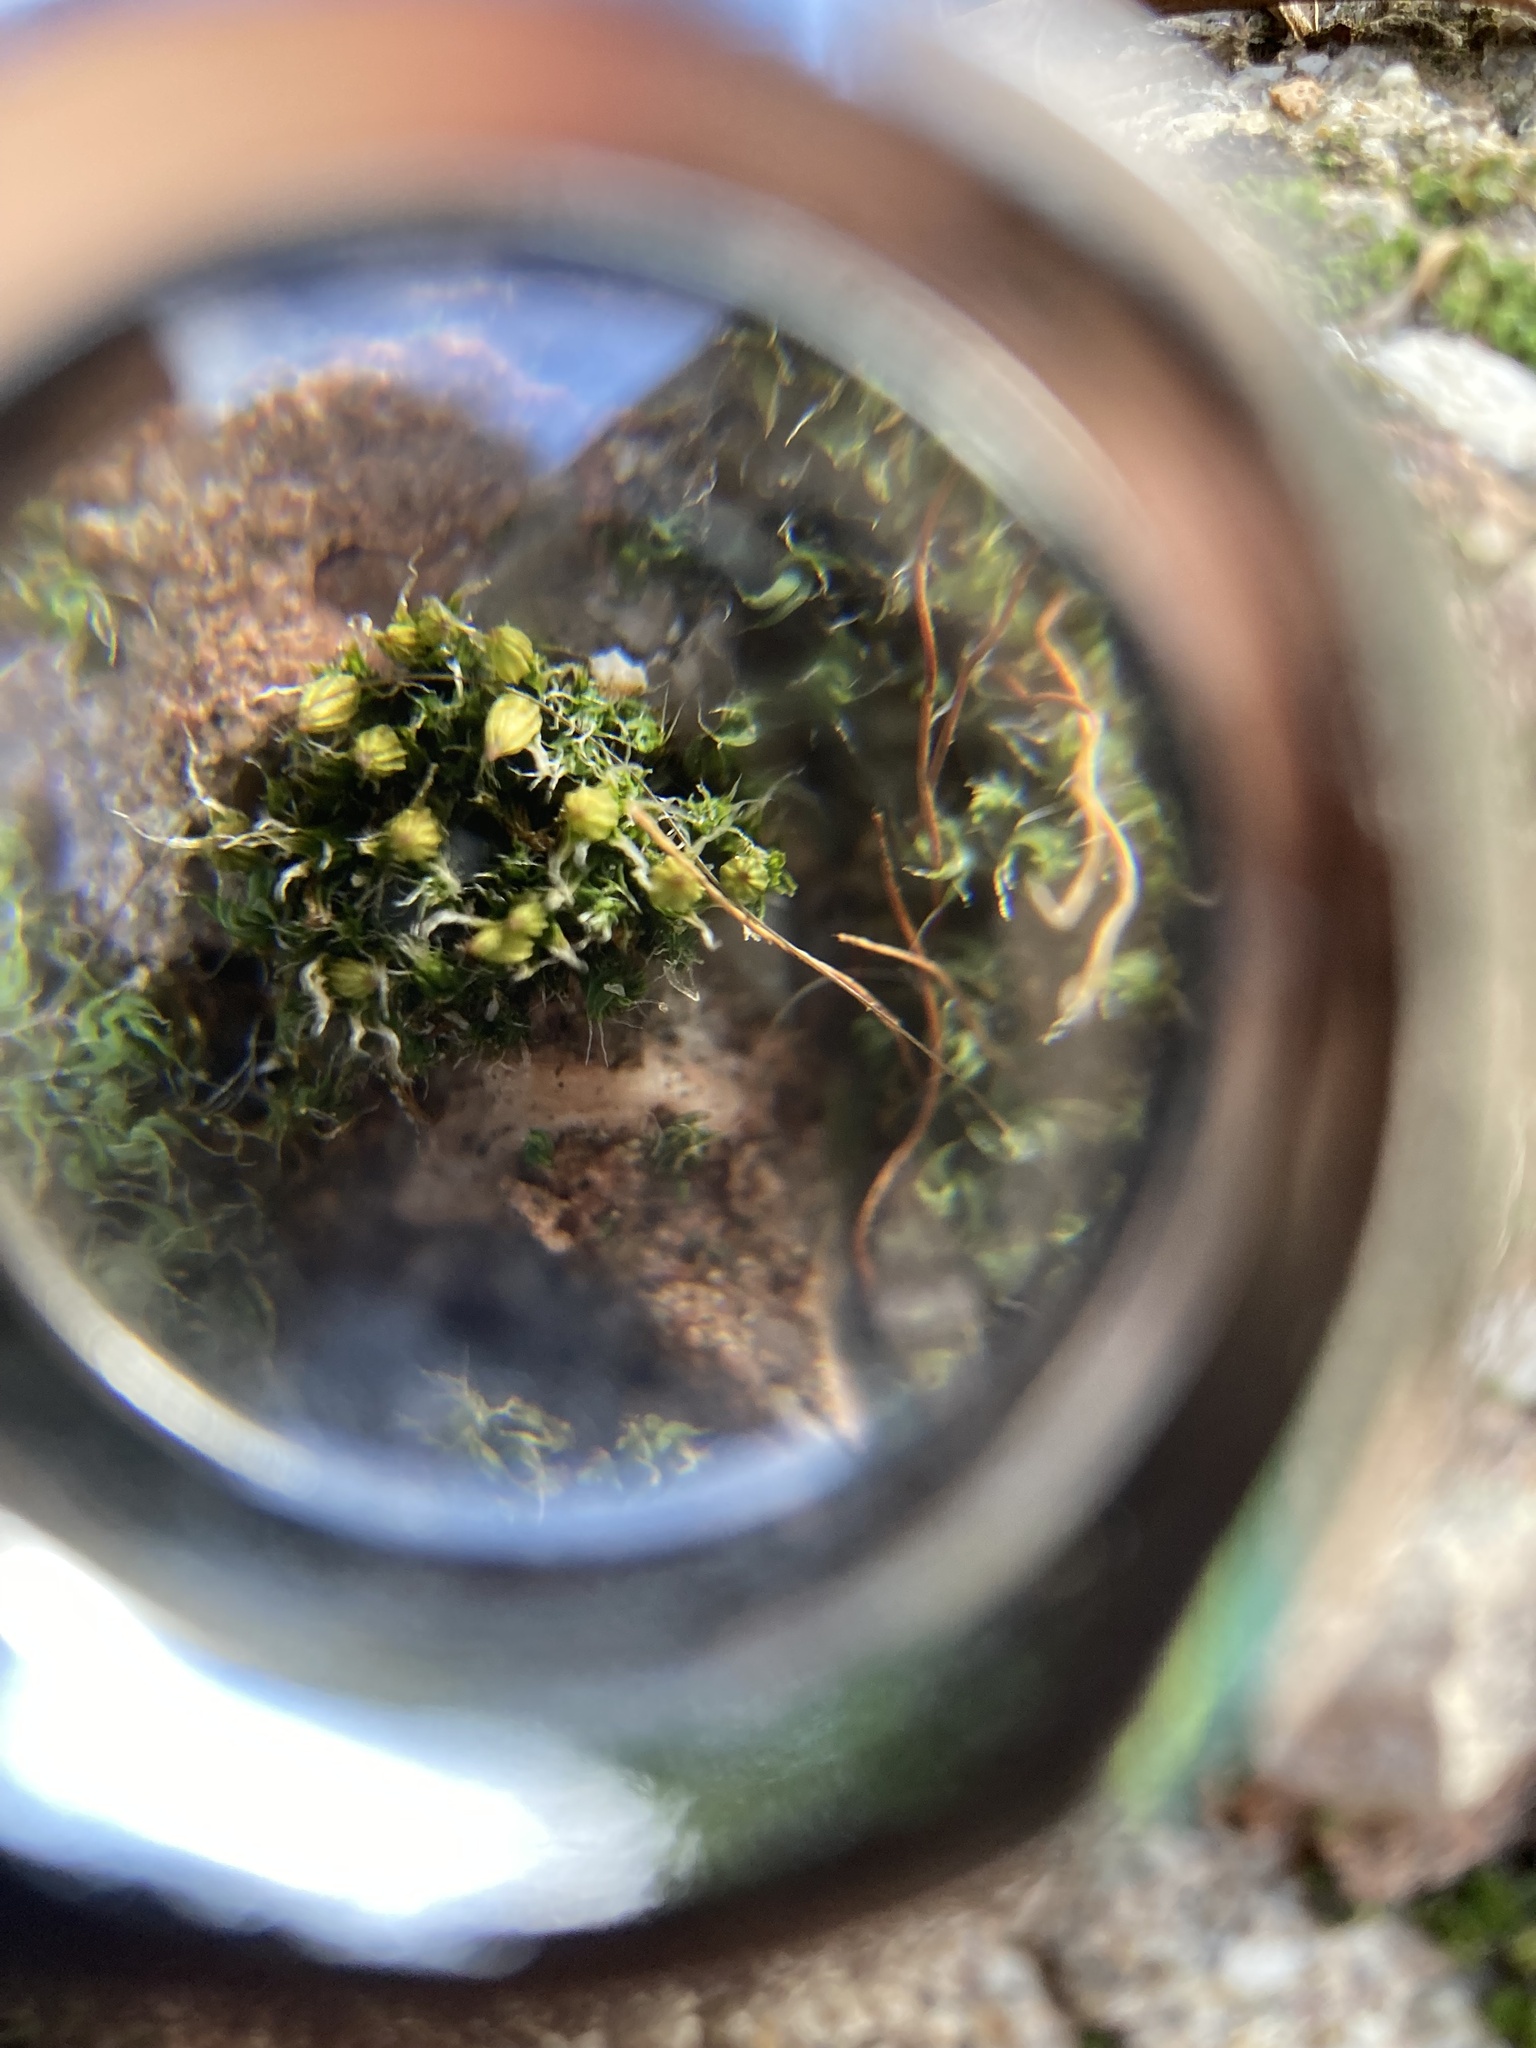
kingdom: Plantae
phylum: Bryophyta
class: Bryopsida
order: Orthotrichales
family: Orthotrichaceae
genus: Orthotrichum
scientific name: Orthotrichum diaphanum
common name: White-tipped bristle-moss
